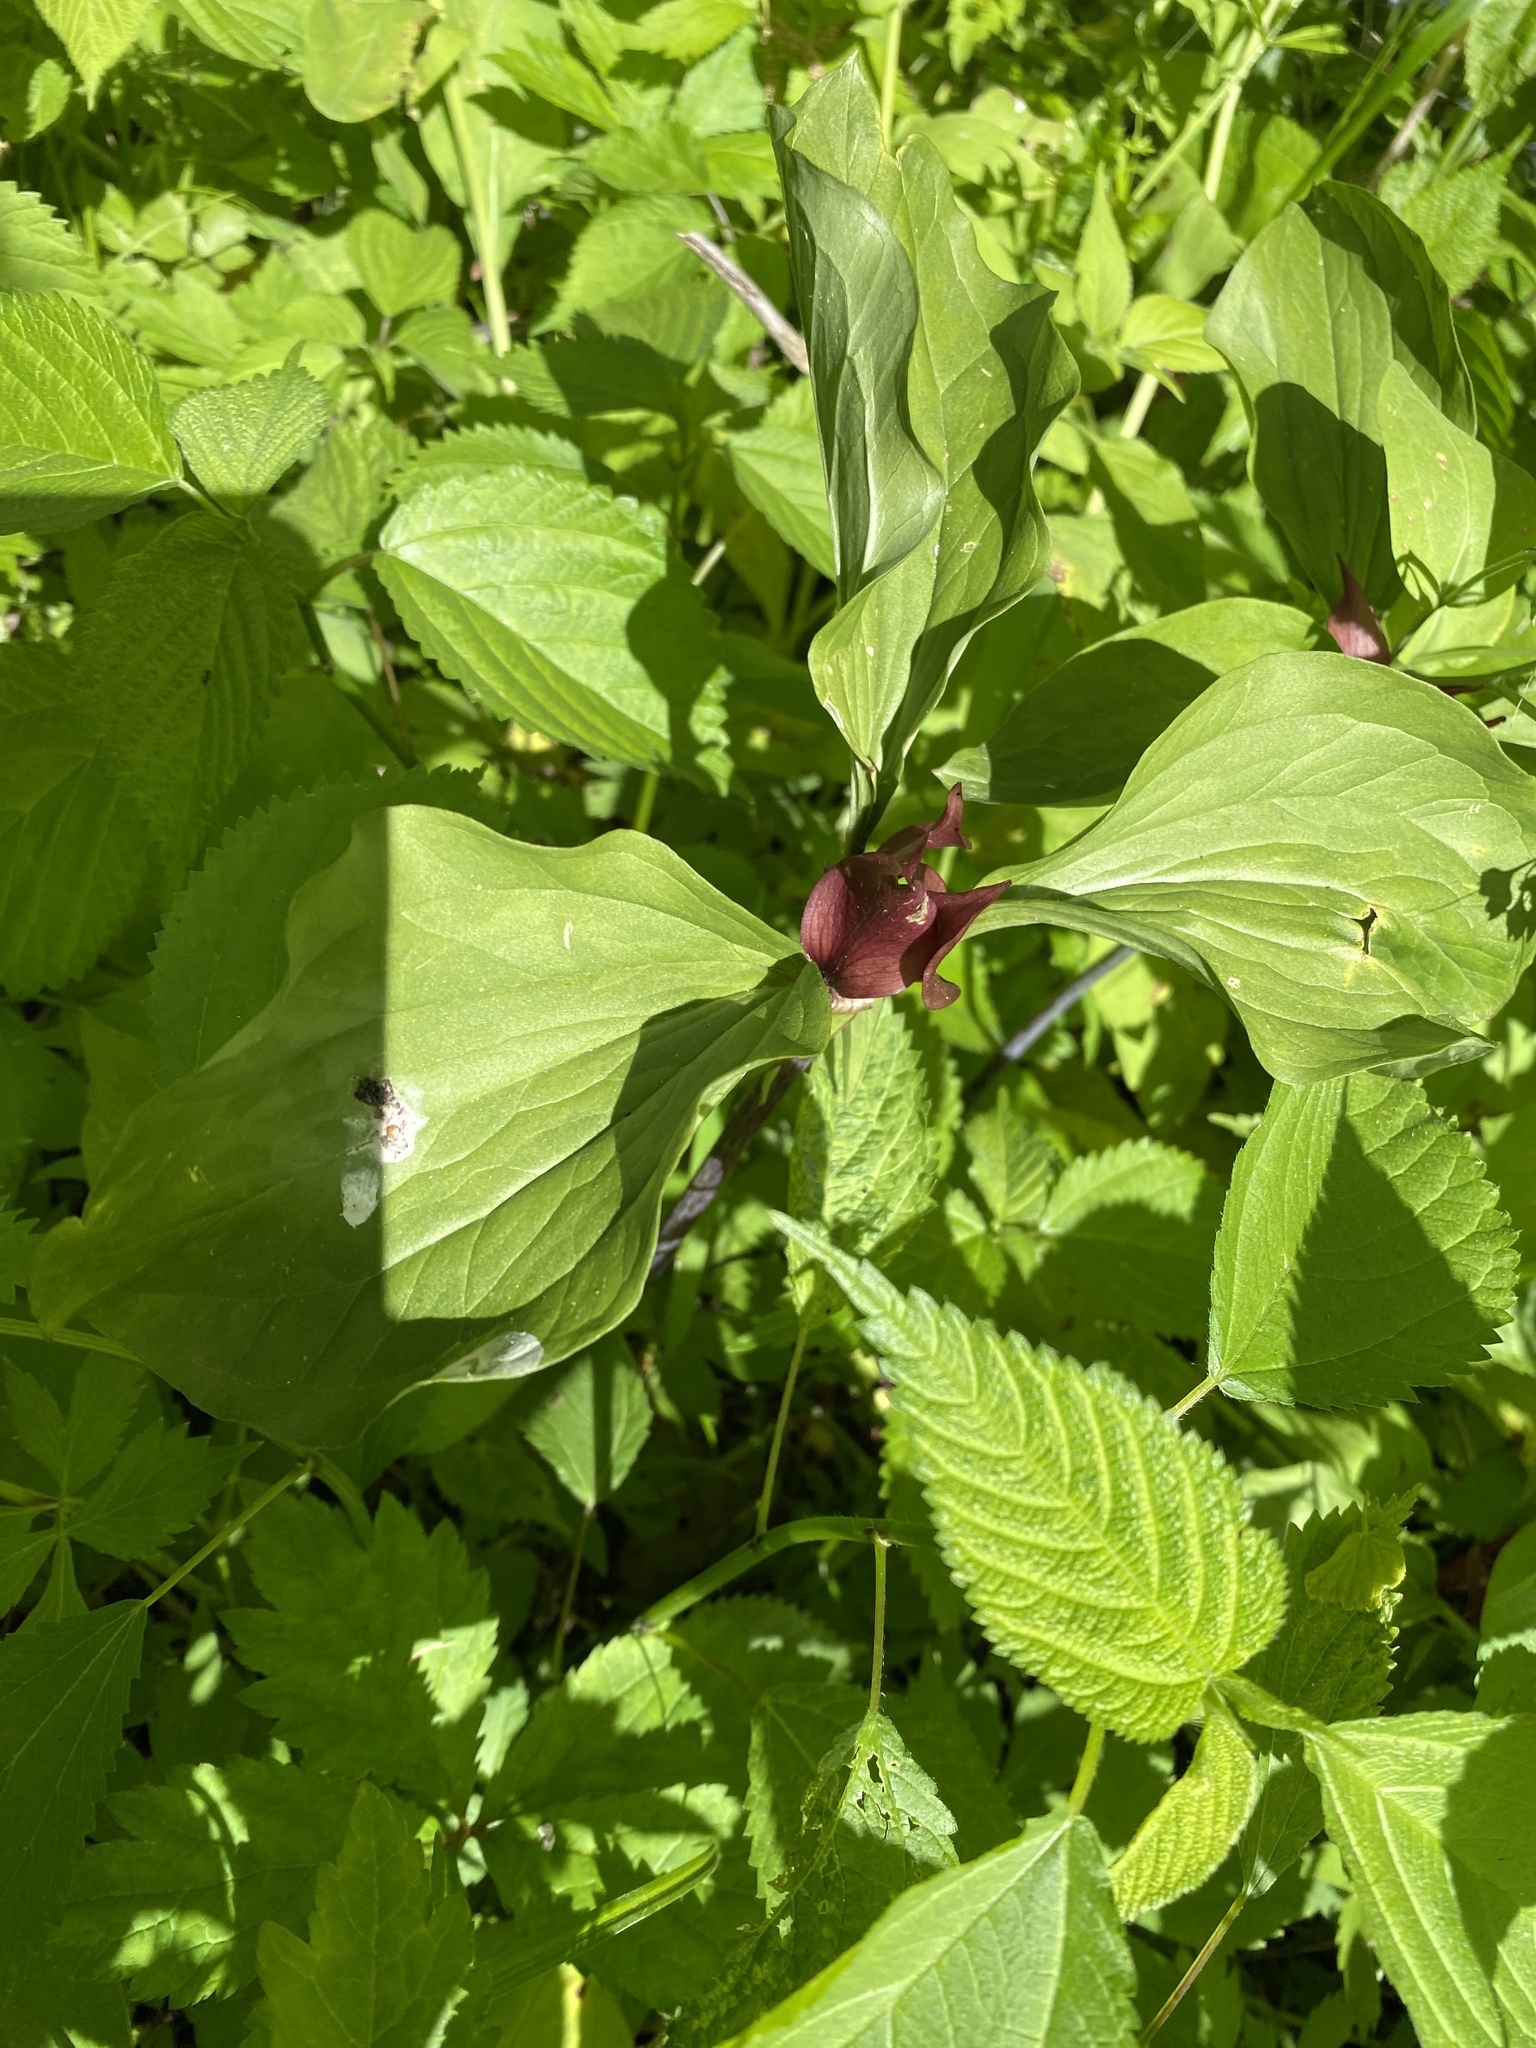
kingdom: Plantae
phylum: Tracheophyta
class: Liliopsida
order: Liliales
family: Melanthiaceae
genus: Trillium
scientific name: Trillium recurvatum
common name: Bloody butcher
